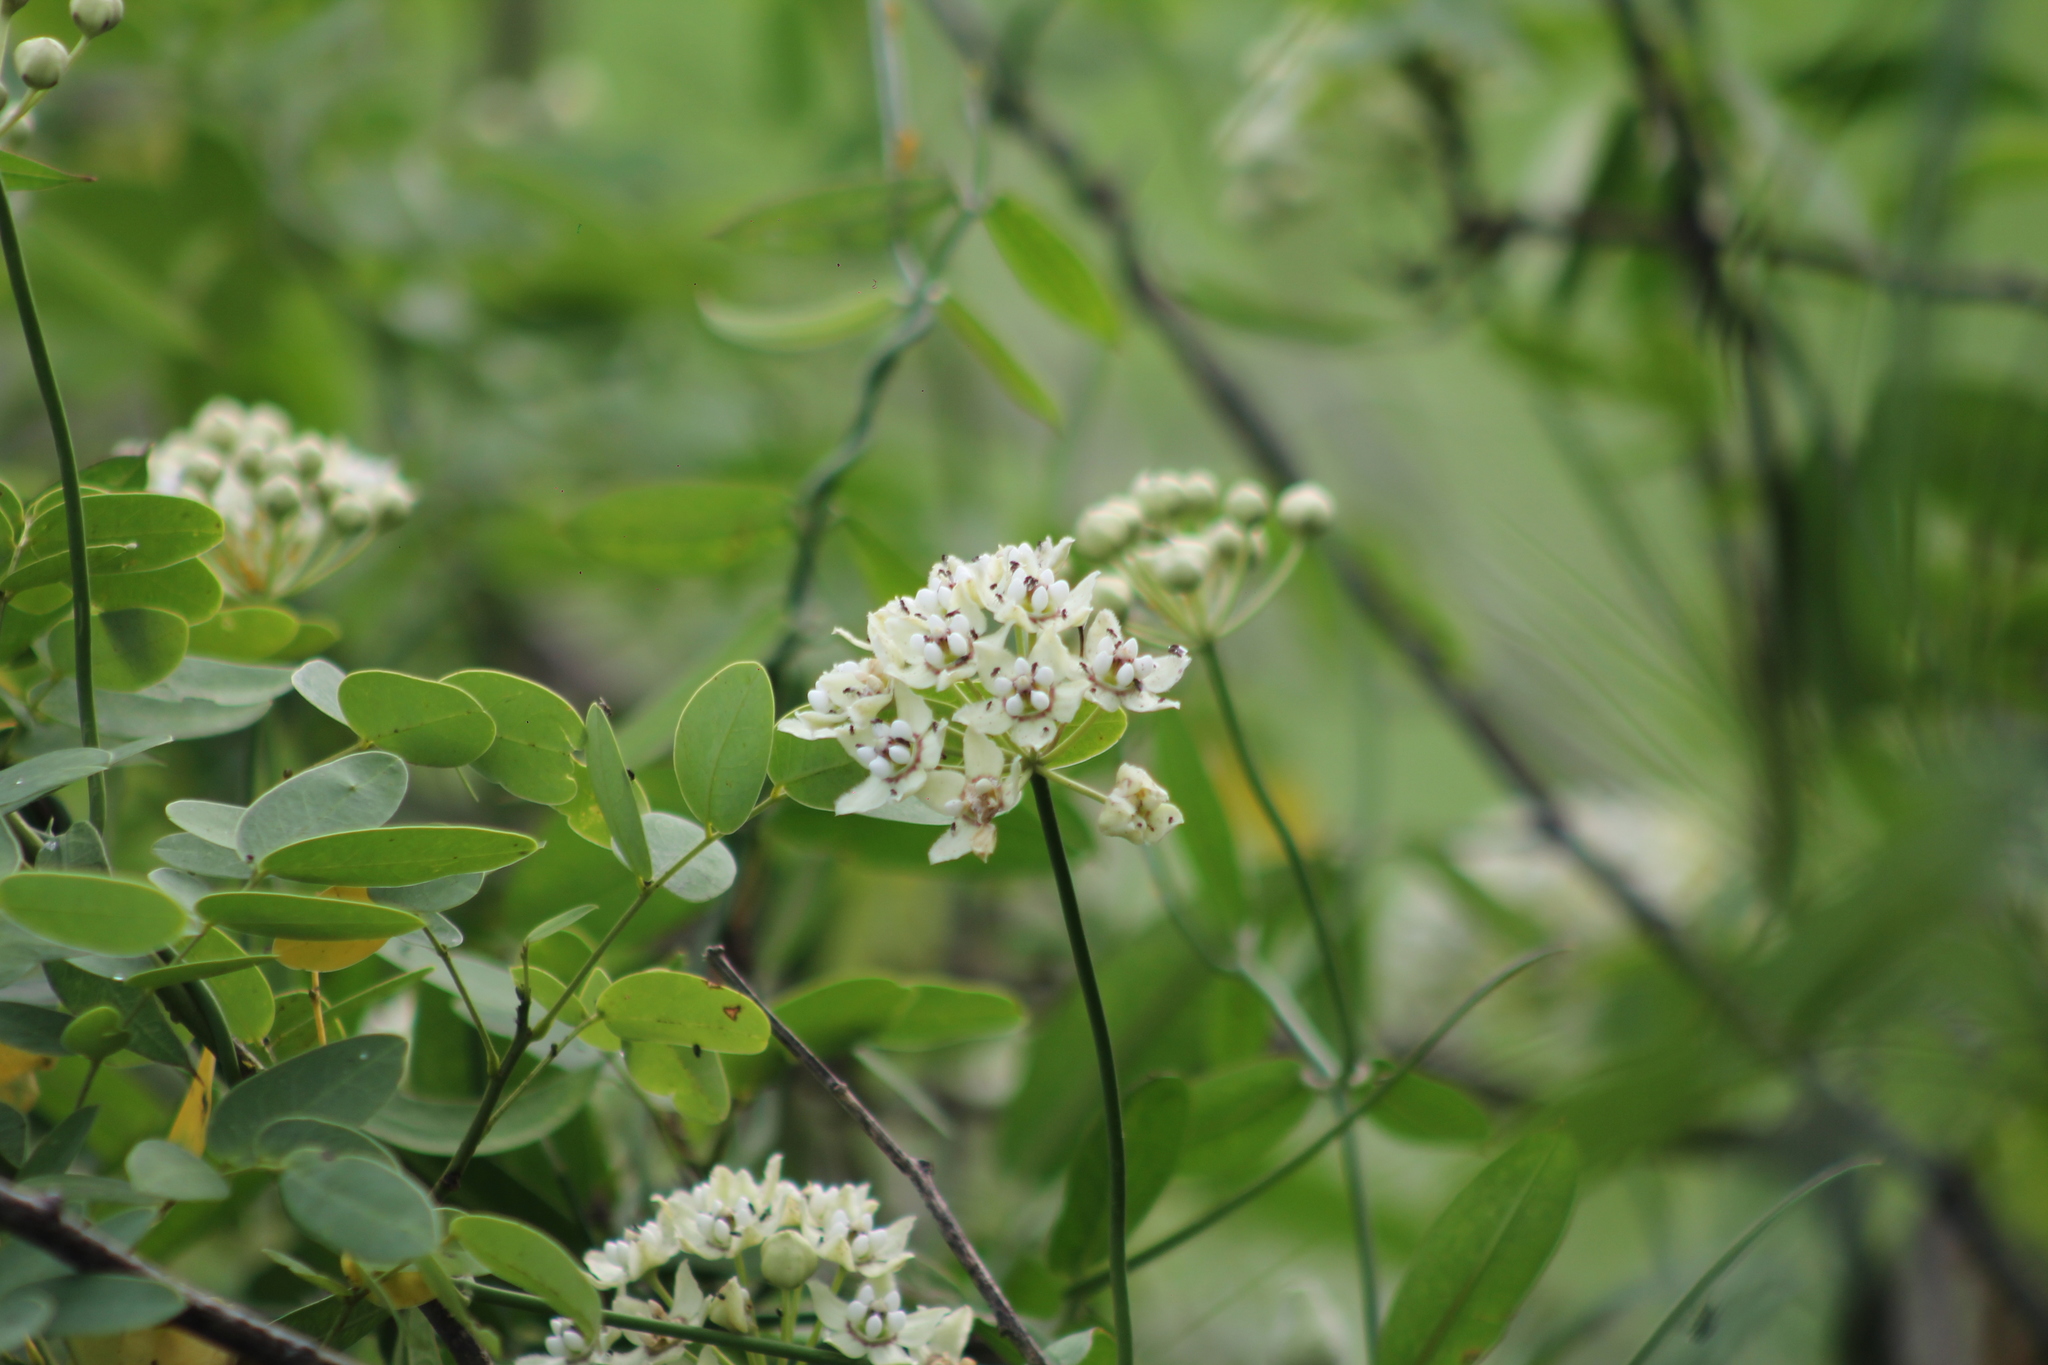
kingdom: Plantae
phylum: Tracheophyta
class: Magnoliopsida
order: Gentianales
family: Apocynaceae
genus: Funastrum
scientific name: Funastrum clausum
